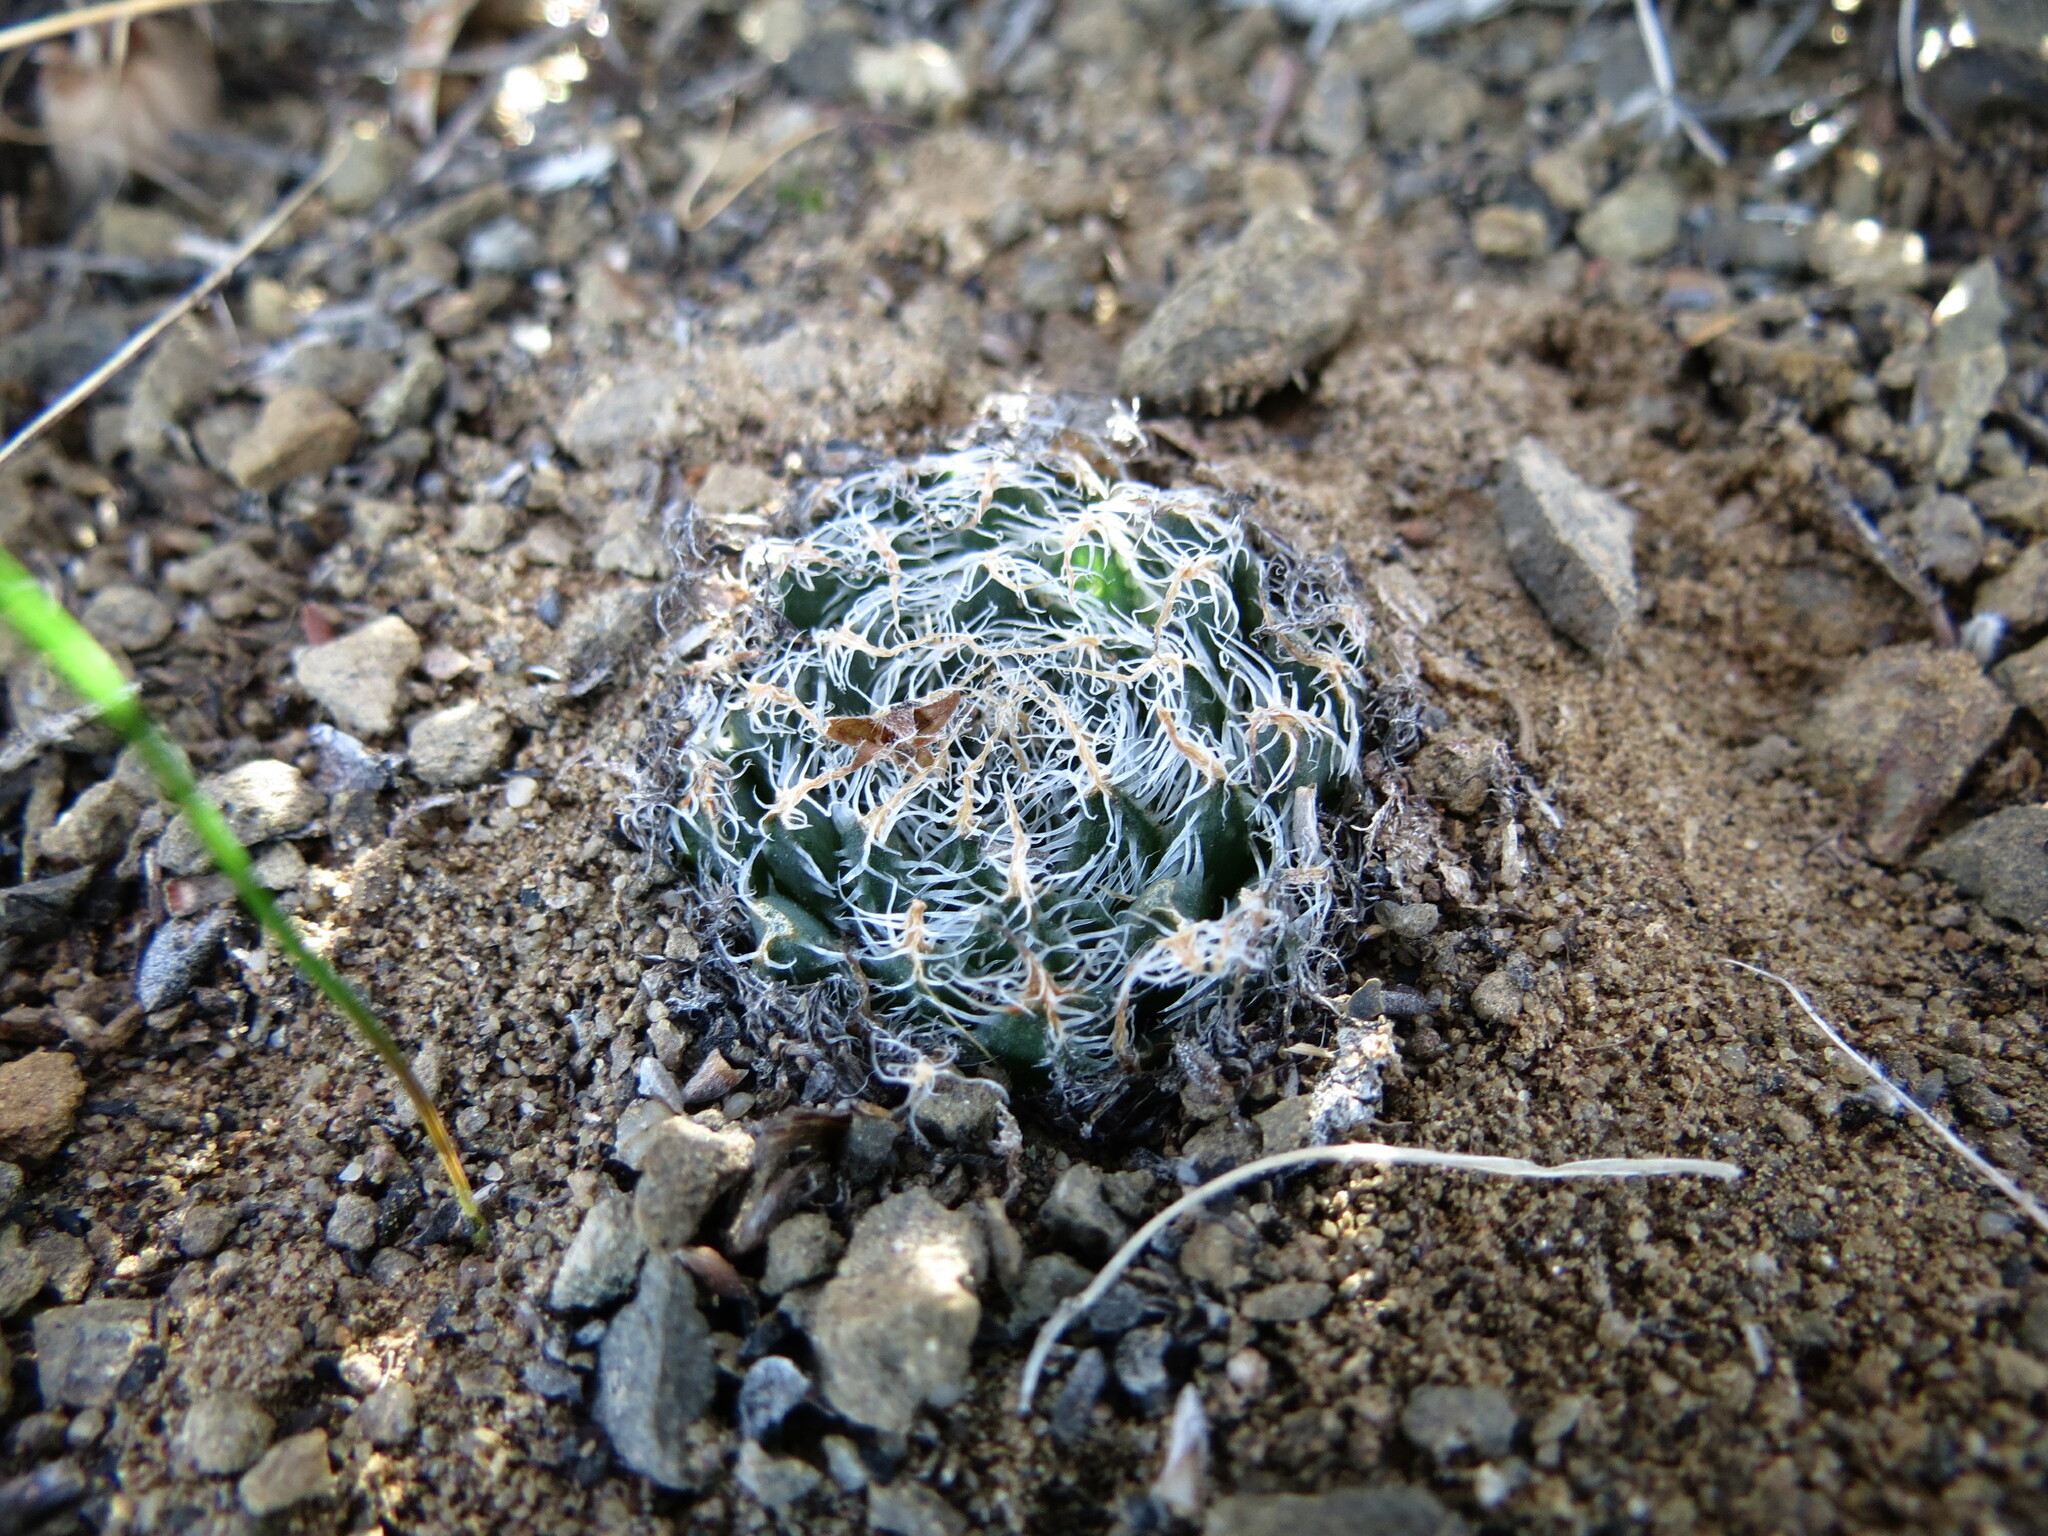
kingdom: Plantae
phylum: Tracheophyta
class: Liliopsida
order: Asparagales
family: Asphodelaceae
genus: Haworthia
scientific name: Haworthia arachnoidea
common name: Cobweb-aloe
